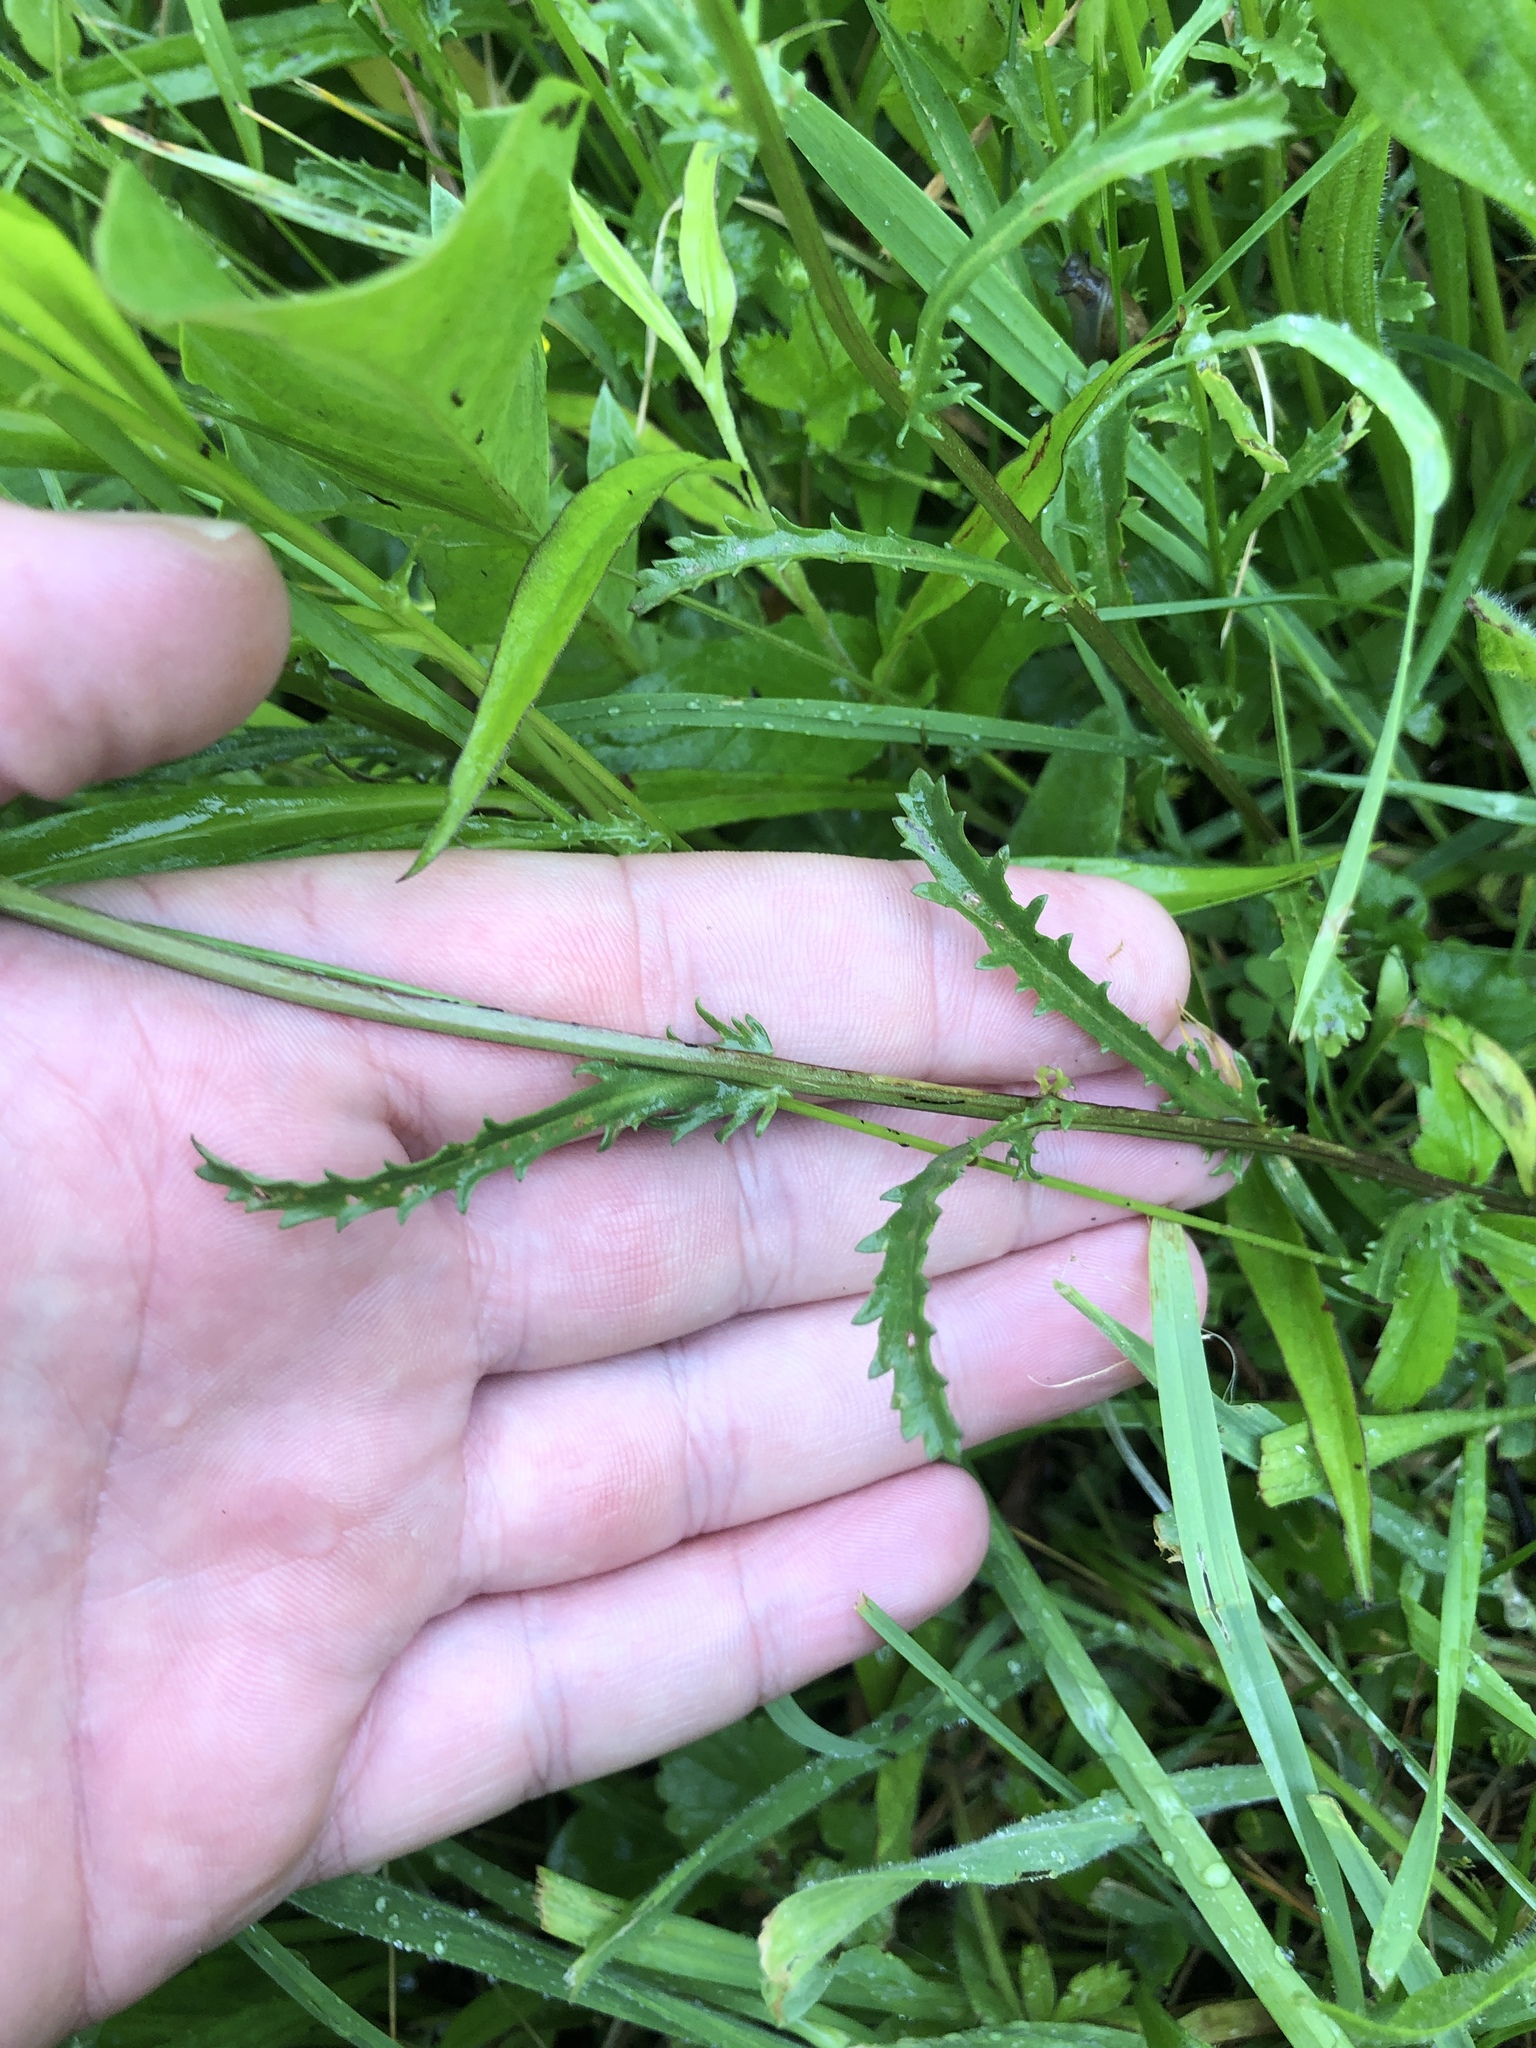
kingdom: Plantae
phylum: Tracheophyta
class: Magnoliopsida
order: Asterales
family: Asteraceae
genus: Leucanthemum
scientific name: Leucanthemum vulgare
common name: Oxeye daisy
